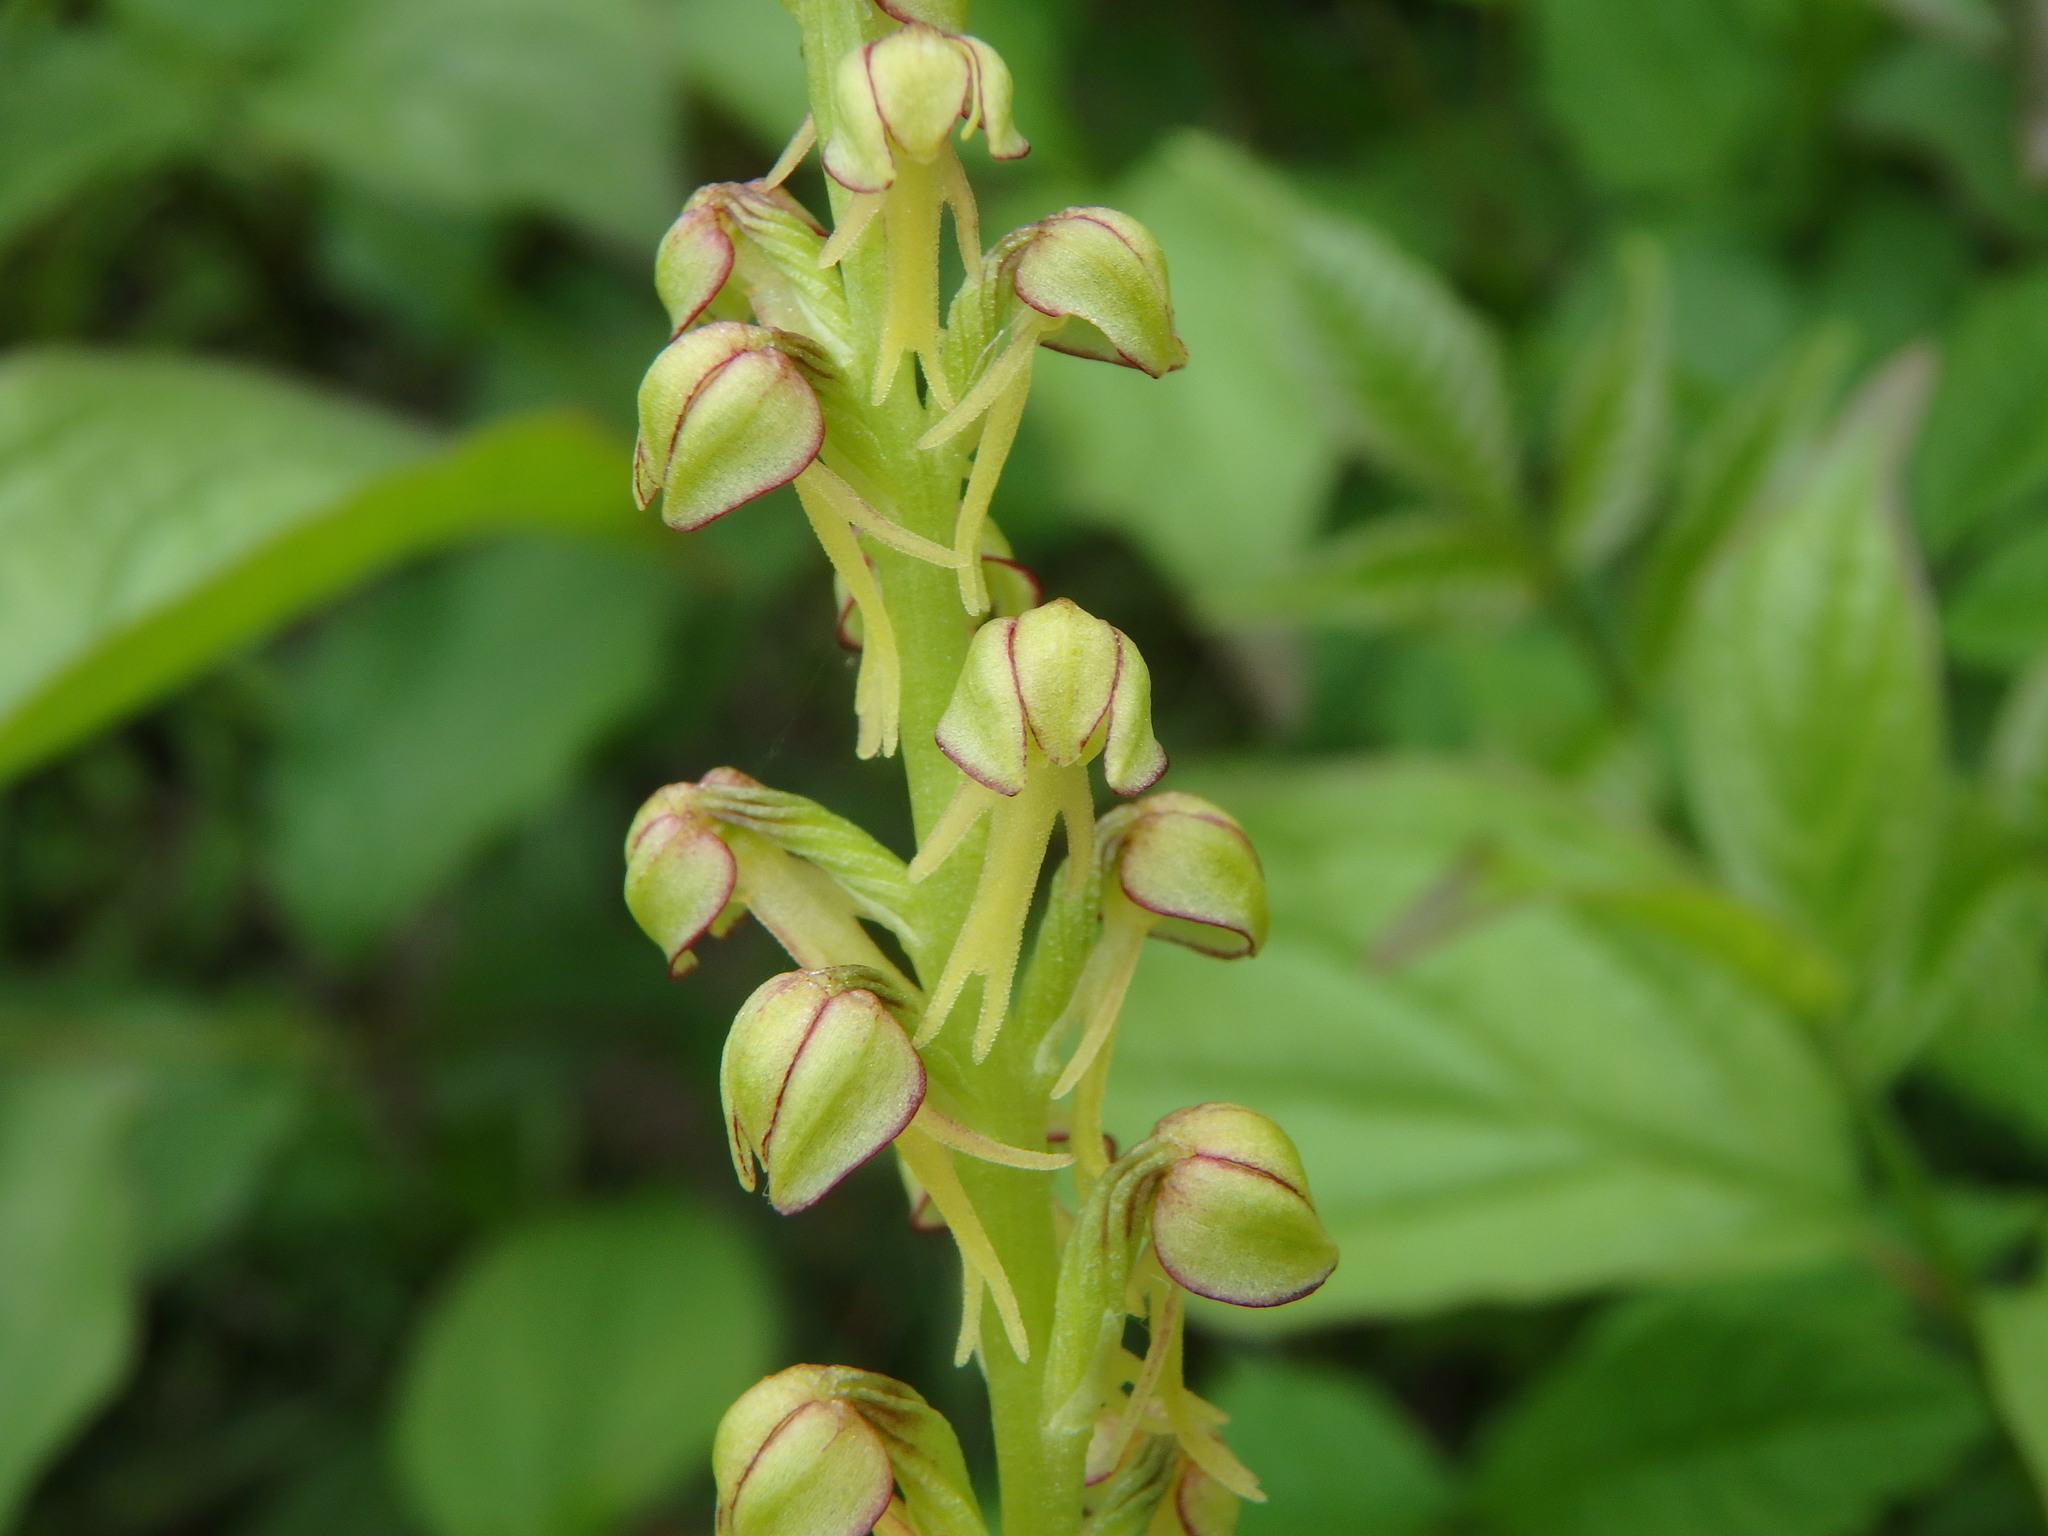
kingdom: Plantae
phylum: Tracheophyta
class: Liliopsida
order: Asparagales
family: Orchidaceae
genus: Orchis
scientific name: Orchis anthropophora
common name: Man orchid
